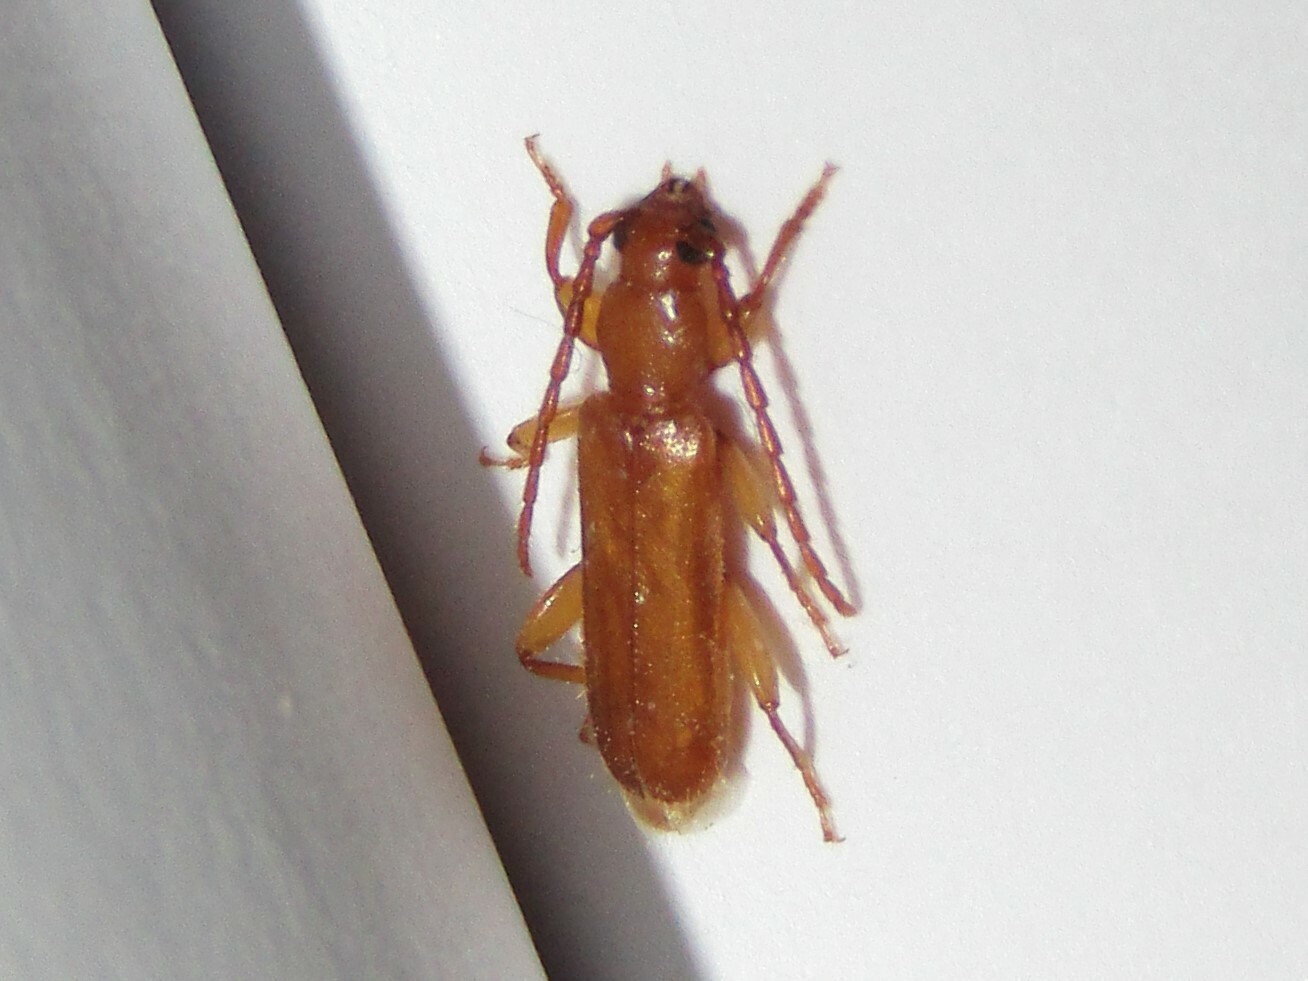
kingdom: Animalia
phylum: Arthropoda
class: Insecta
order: Coleoptera
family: Cerambycidae
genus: Smodicum
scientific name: Smodicum cucujiforme
